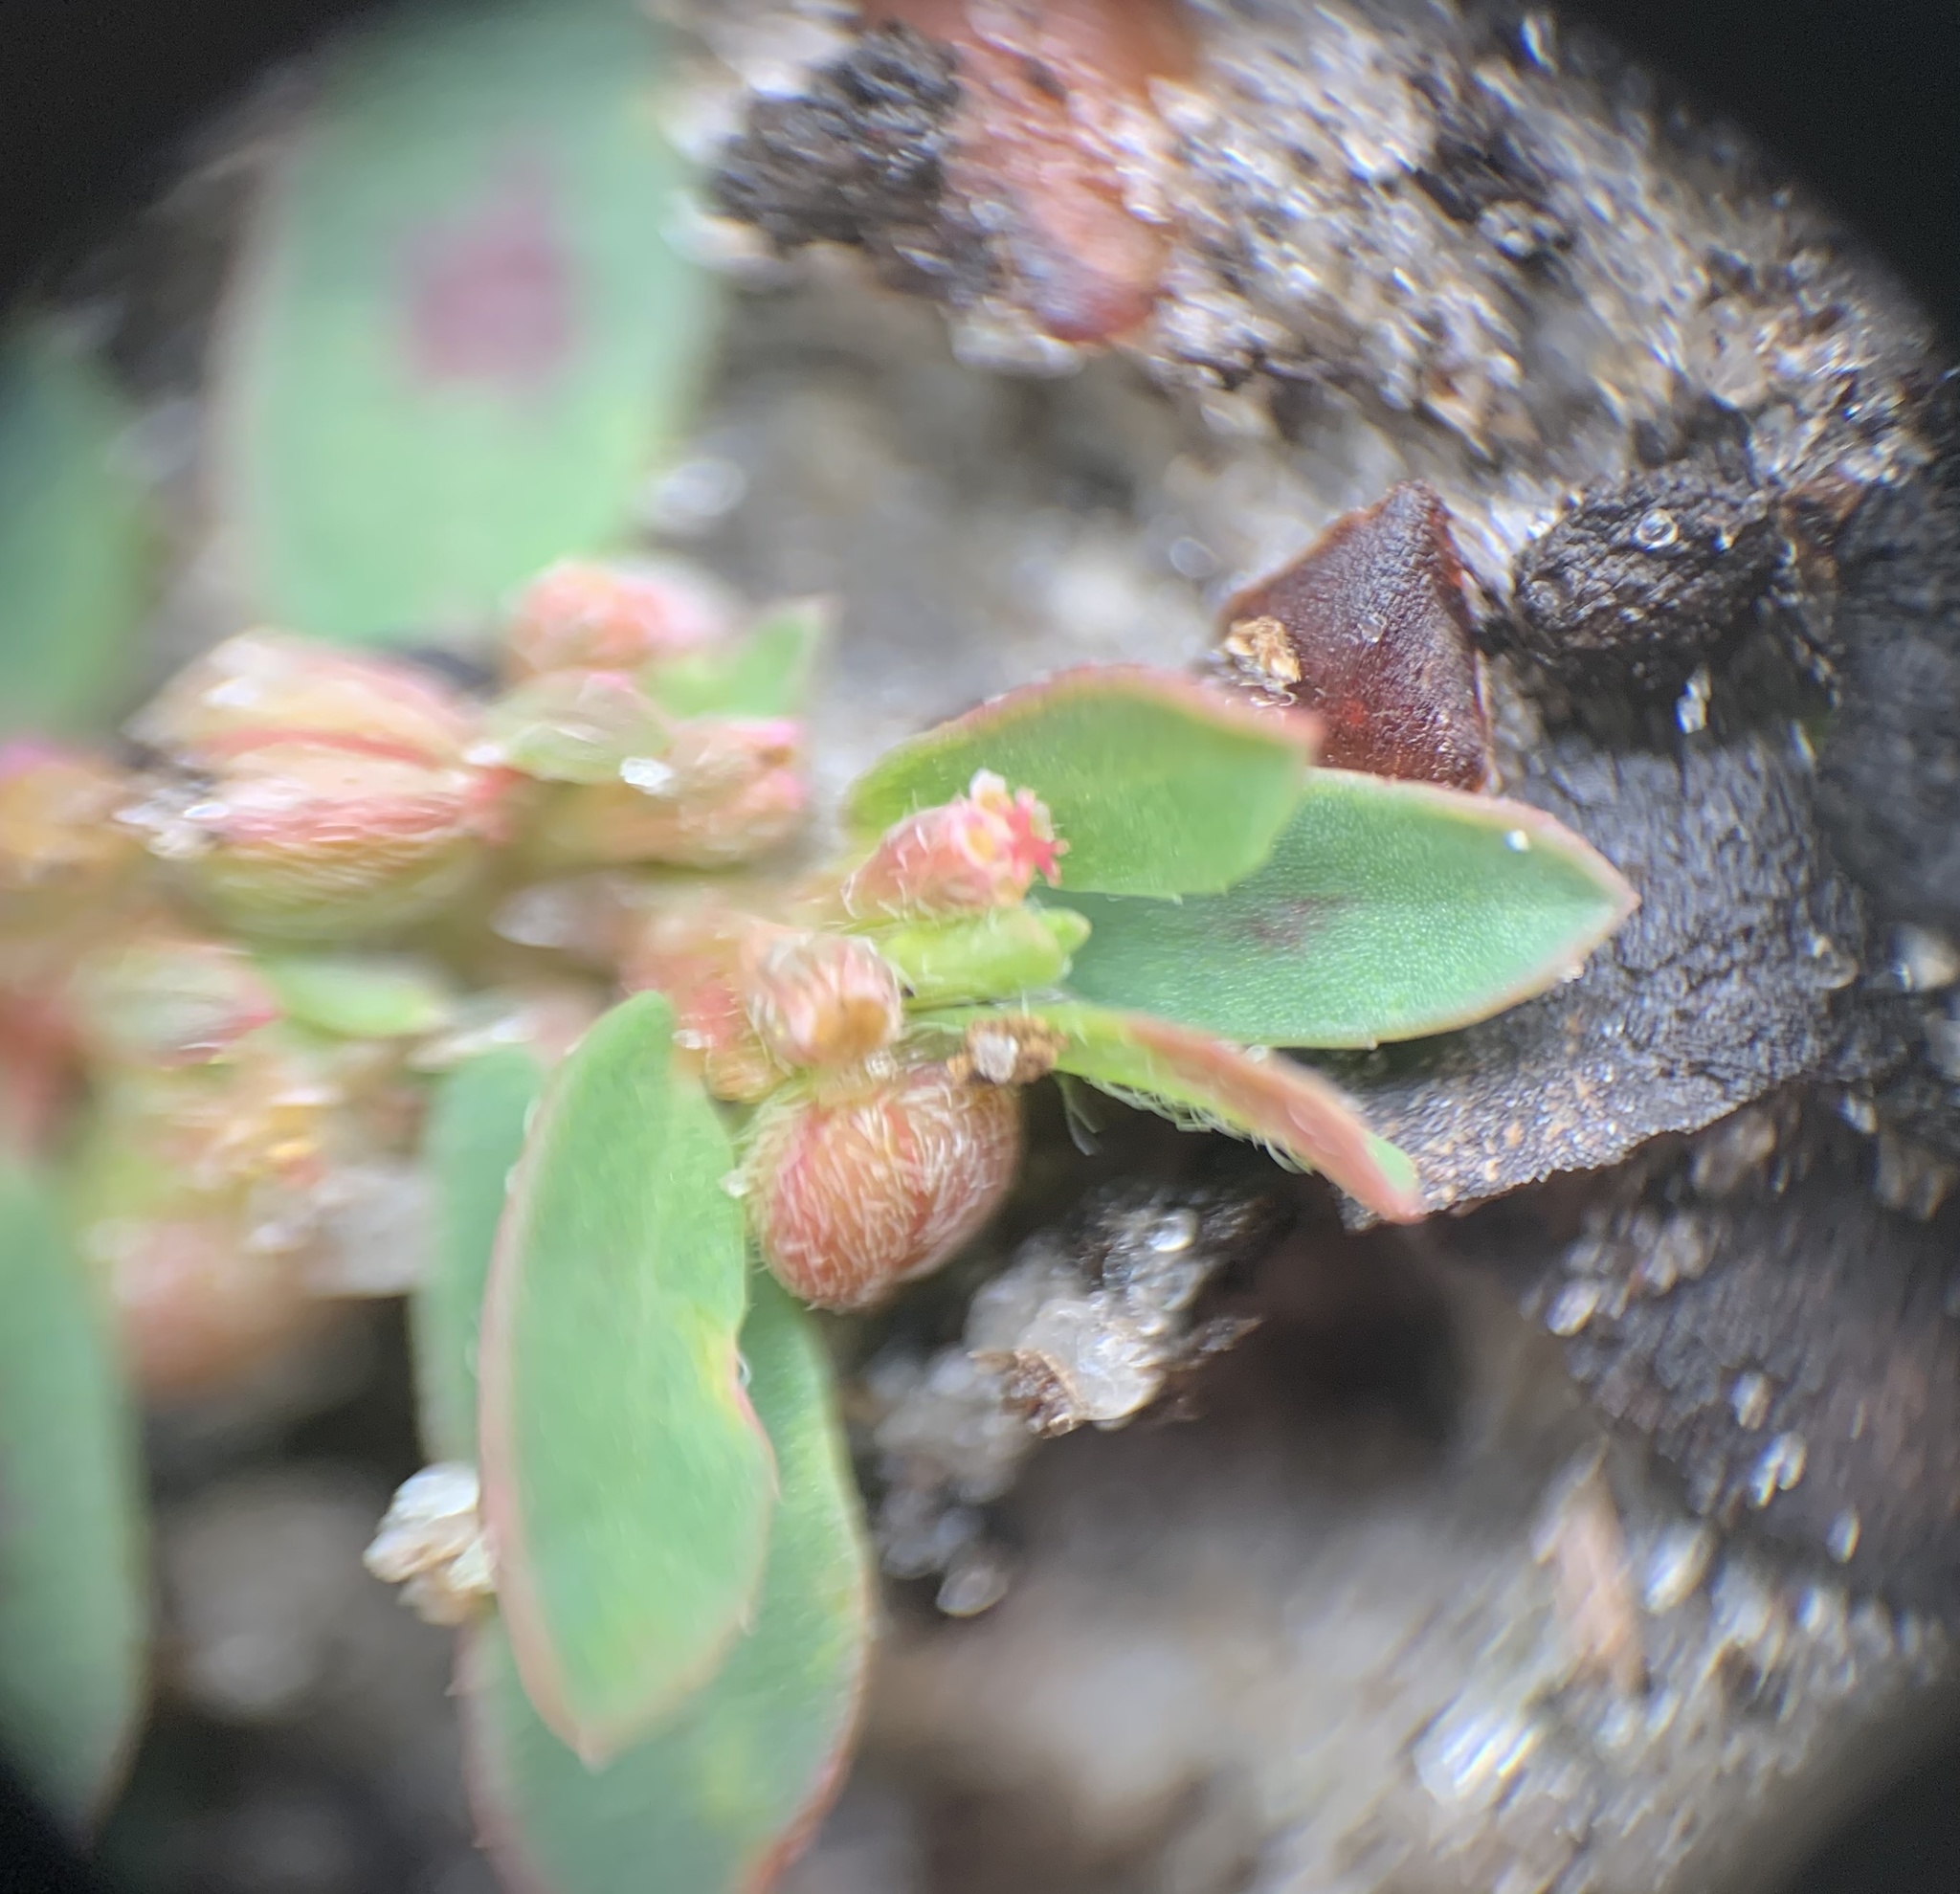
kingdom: Plantae
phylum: Tracheophyta
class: Magnoliopsida
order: Malpighiales
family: Euphorbiaceae
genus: Euphorbia
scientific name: Euphorbia maculata
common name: Spotted spurge
